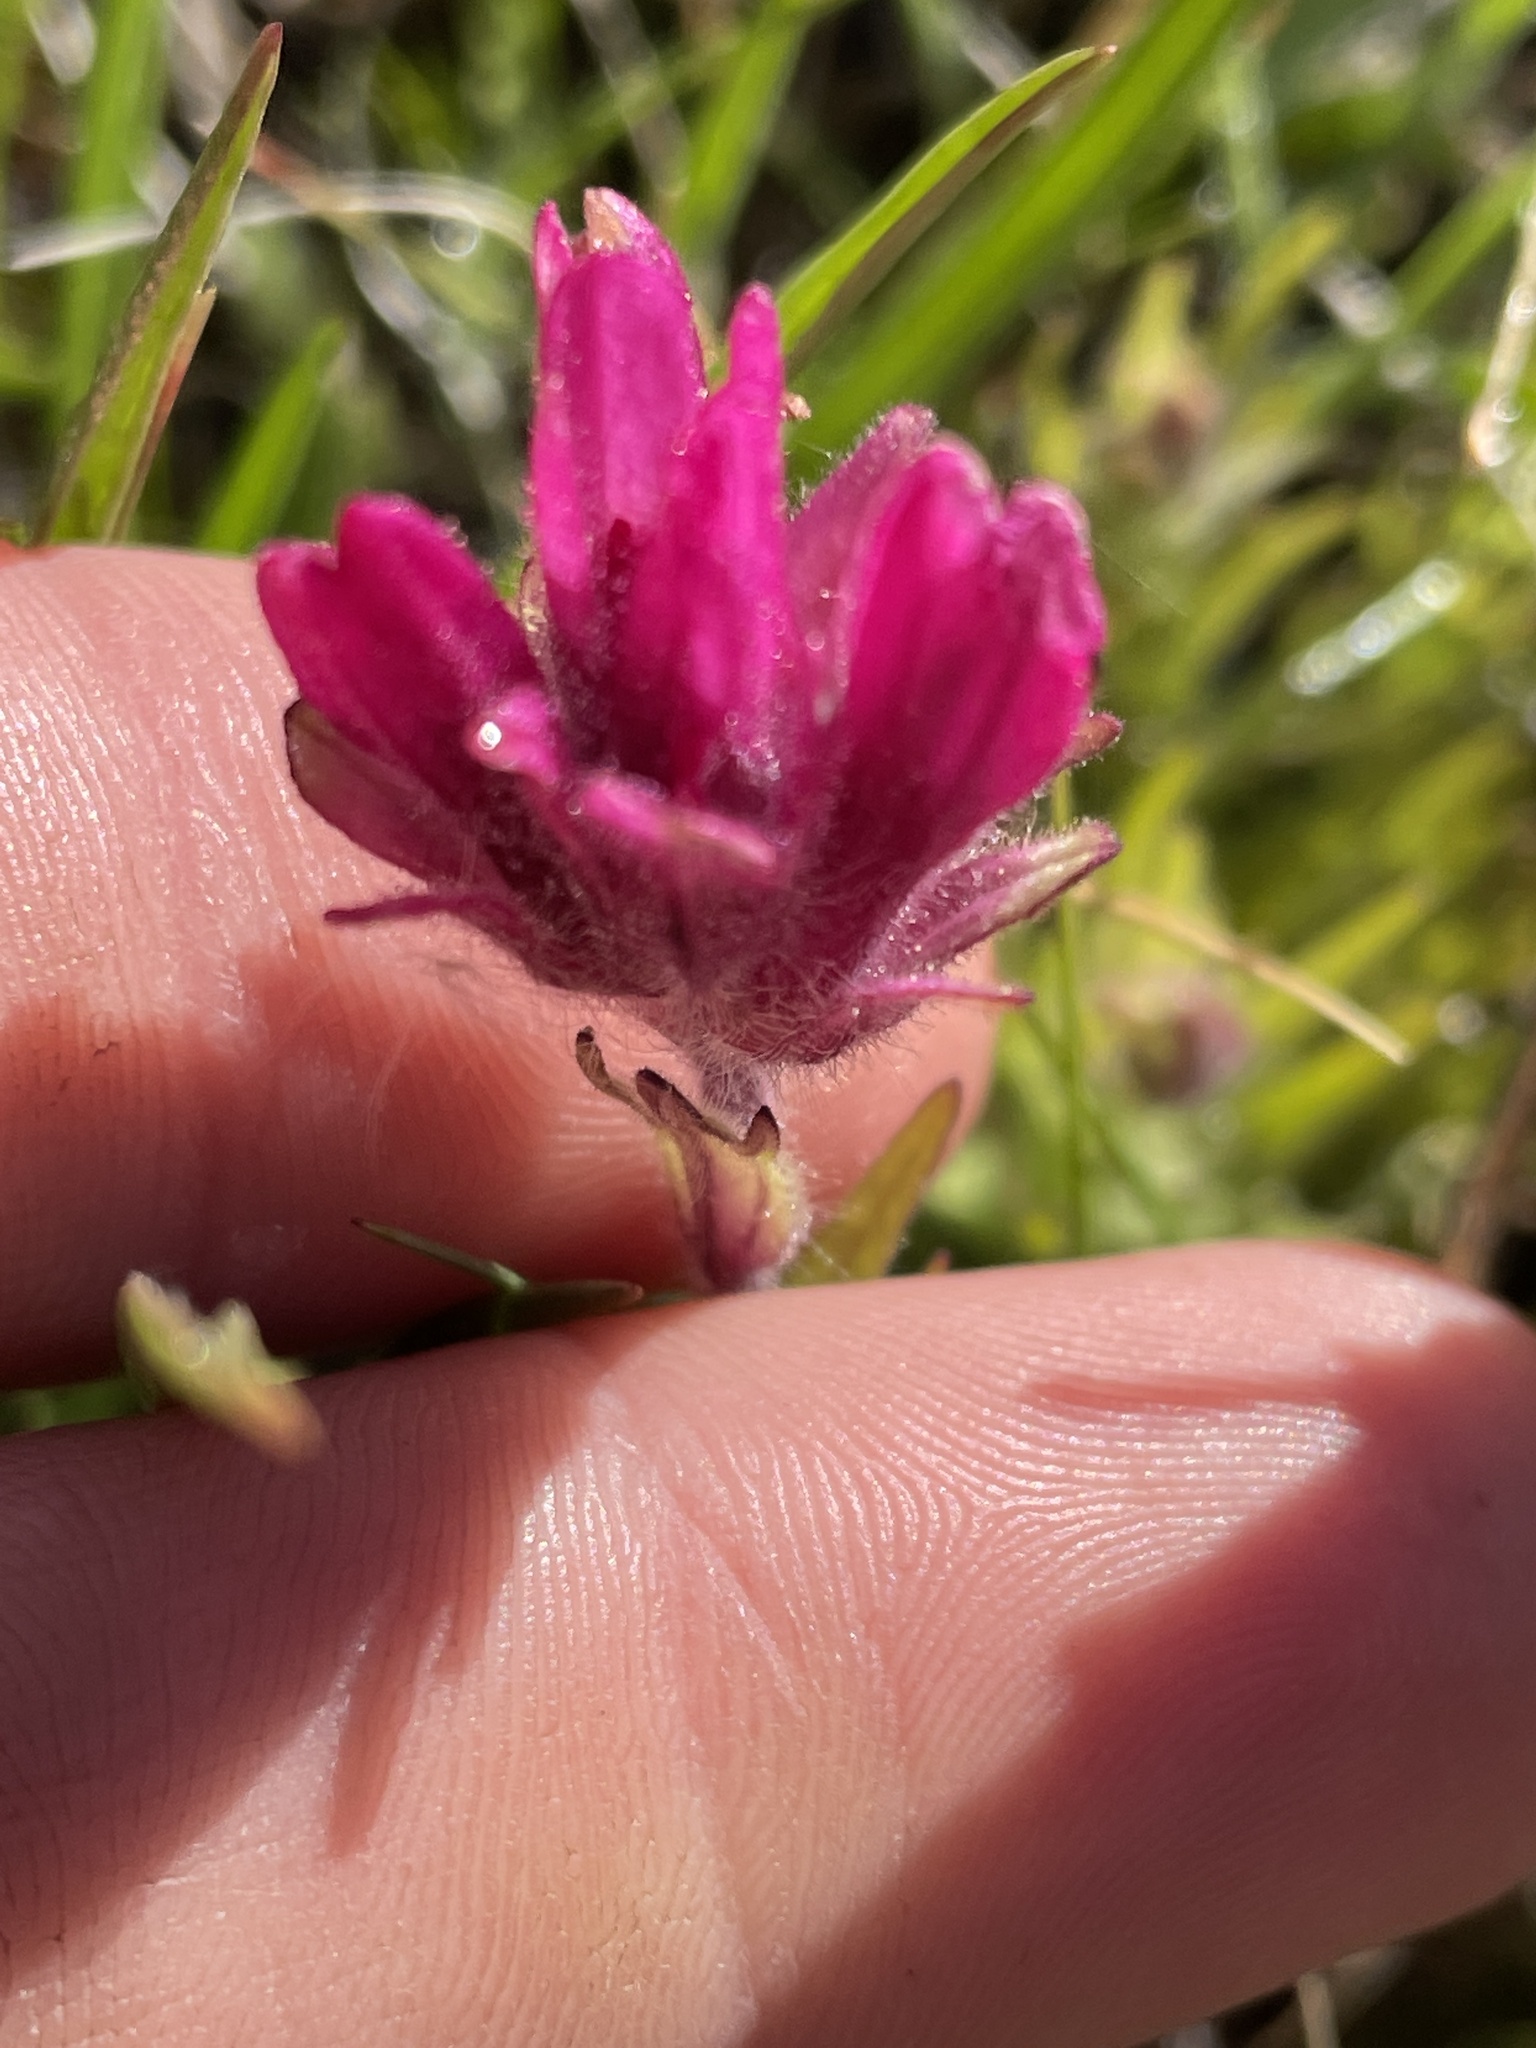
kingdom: Plantae
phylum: Tracheophyta
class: Magnoliopsida
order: Lamiales
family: Orobanchaceae
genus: Castilleja
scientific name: Castilleja lemmonii
